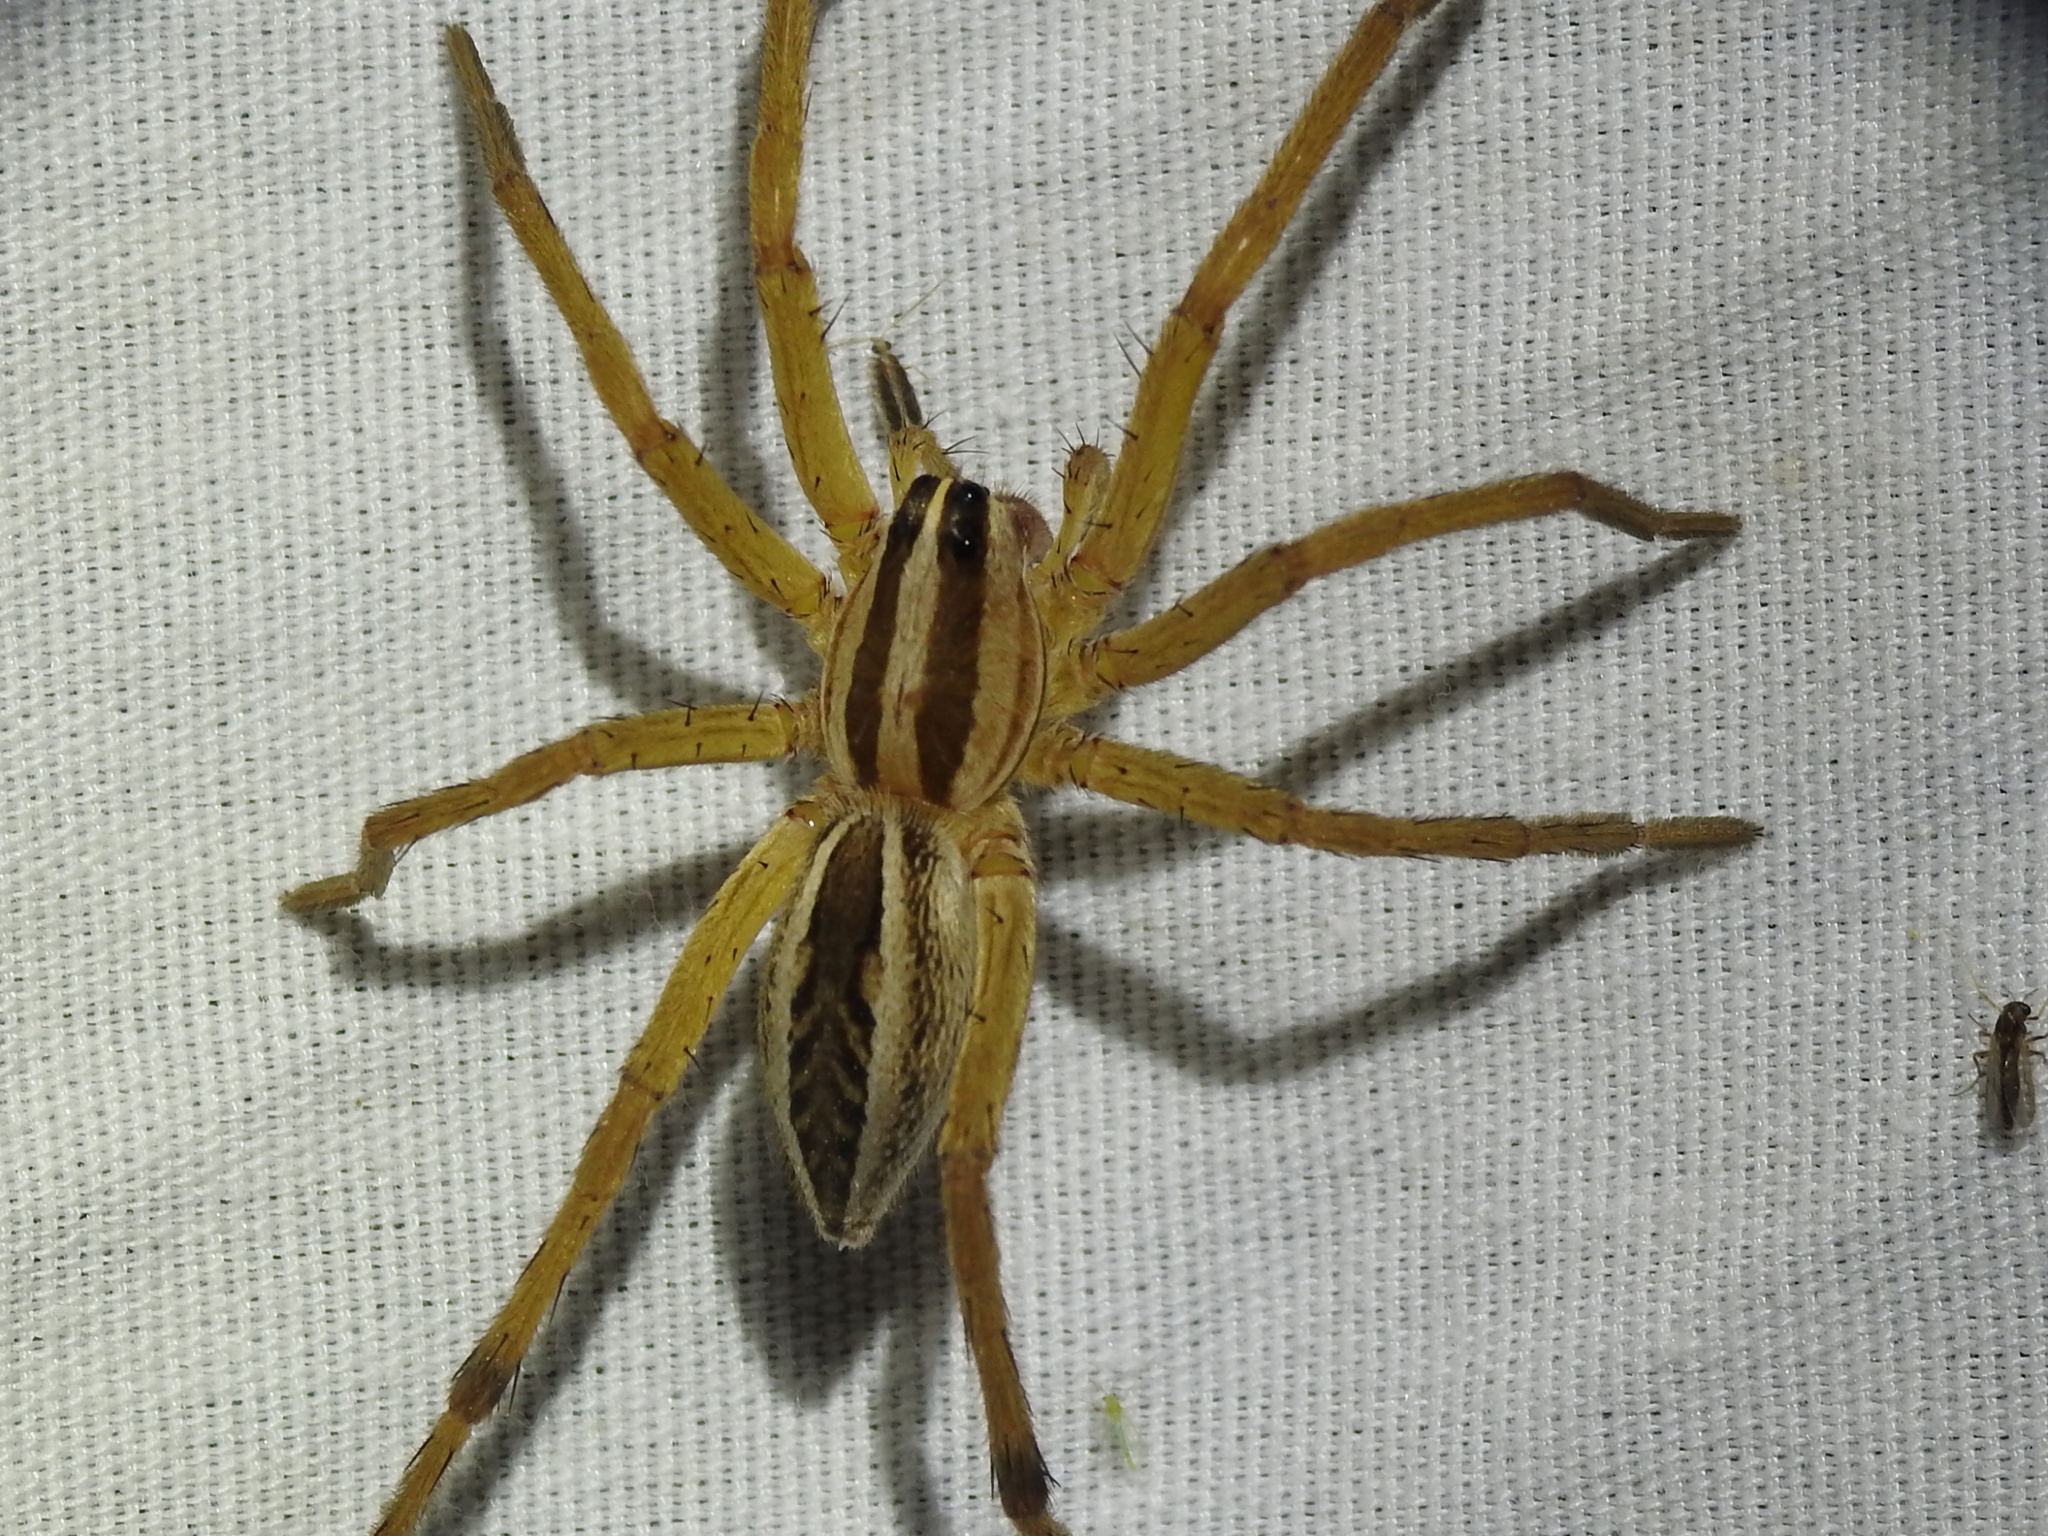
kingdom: Animalia
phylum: Arthropoda
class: Arachnida
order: Araneae
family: Lycosidae
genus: Rabidosa
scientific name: Rabidosa rabida
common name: Rabid wolf spider
